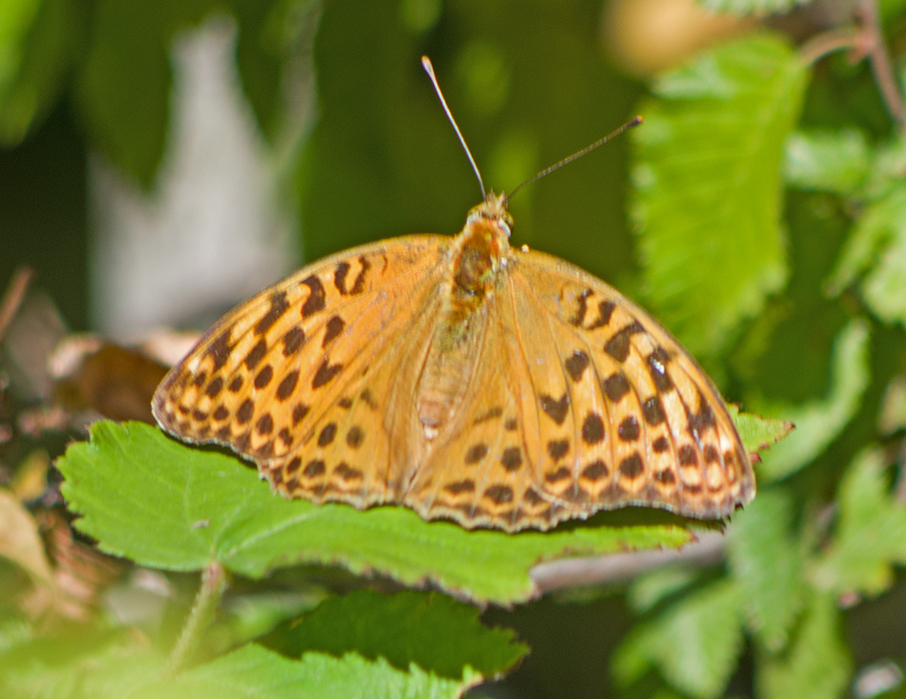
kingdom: Animalia
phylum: Arthropoda
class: Insecta
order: Lepidoptera
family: Nymphalidae
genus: Argynnis
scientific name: Argynnis paphia
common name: Silver-washed fritillary
